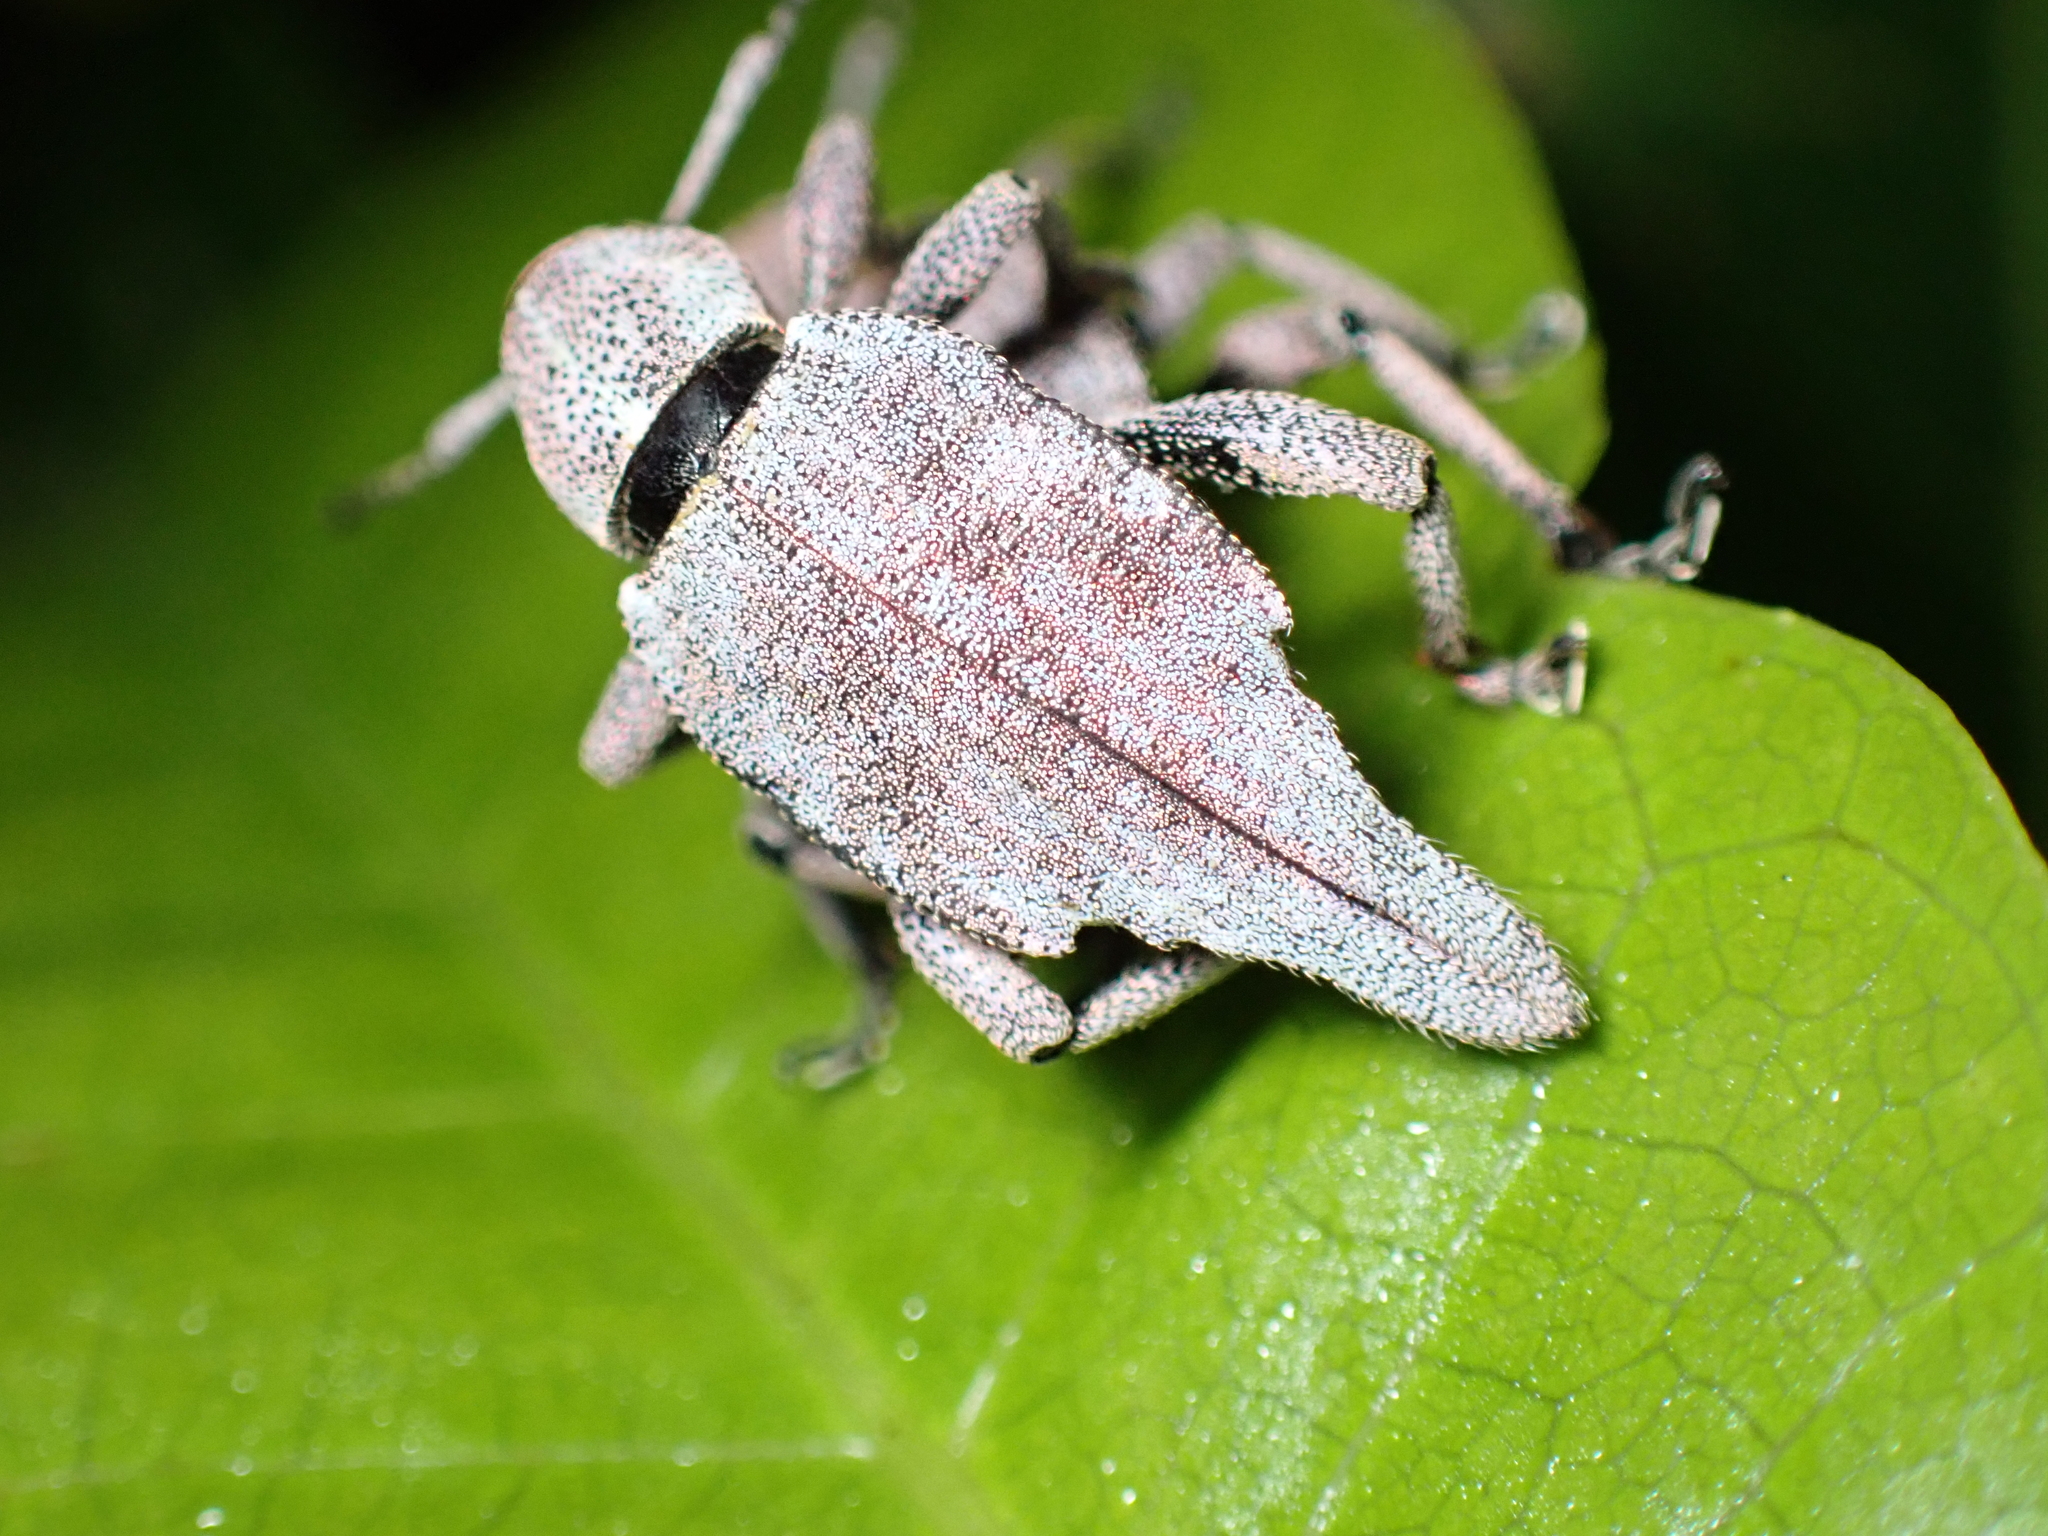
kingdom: Animalia
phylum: Arthropoda
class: Insecta
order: Coleoptera
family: Curculionidae
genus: Elytrurus
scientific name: Elytrurus caudatus
